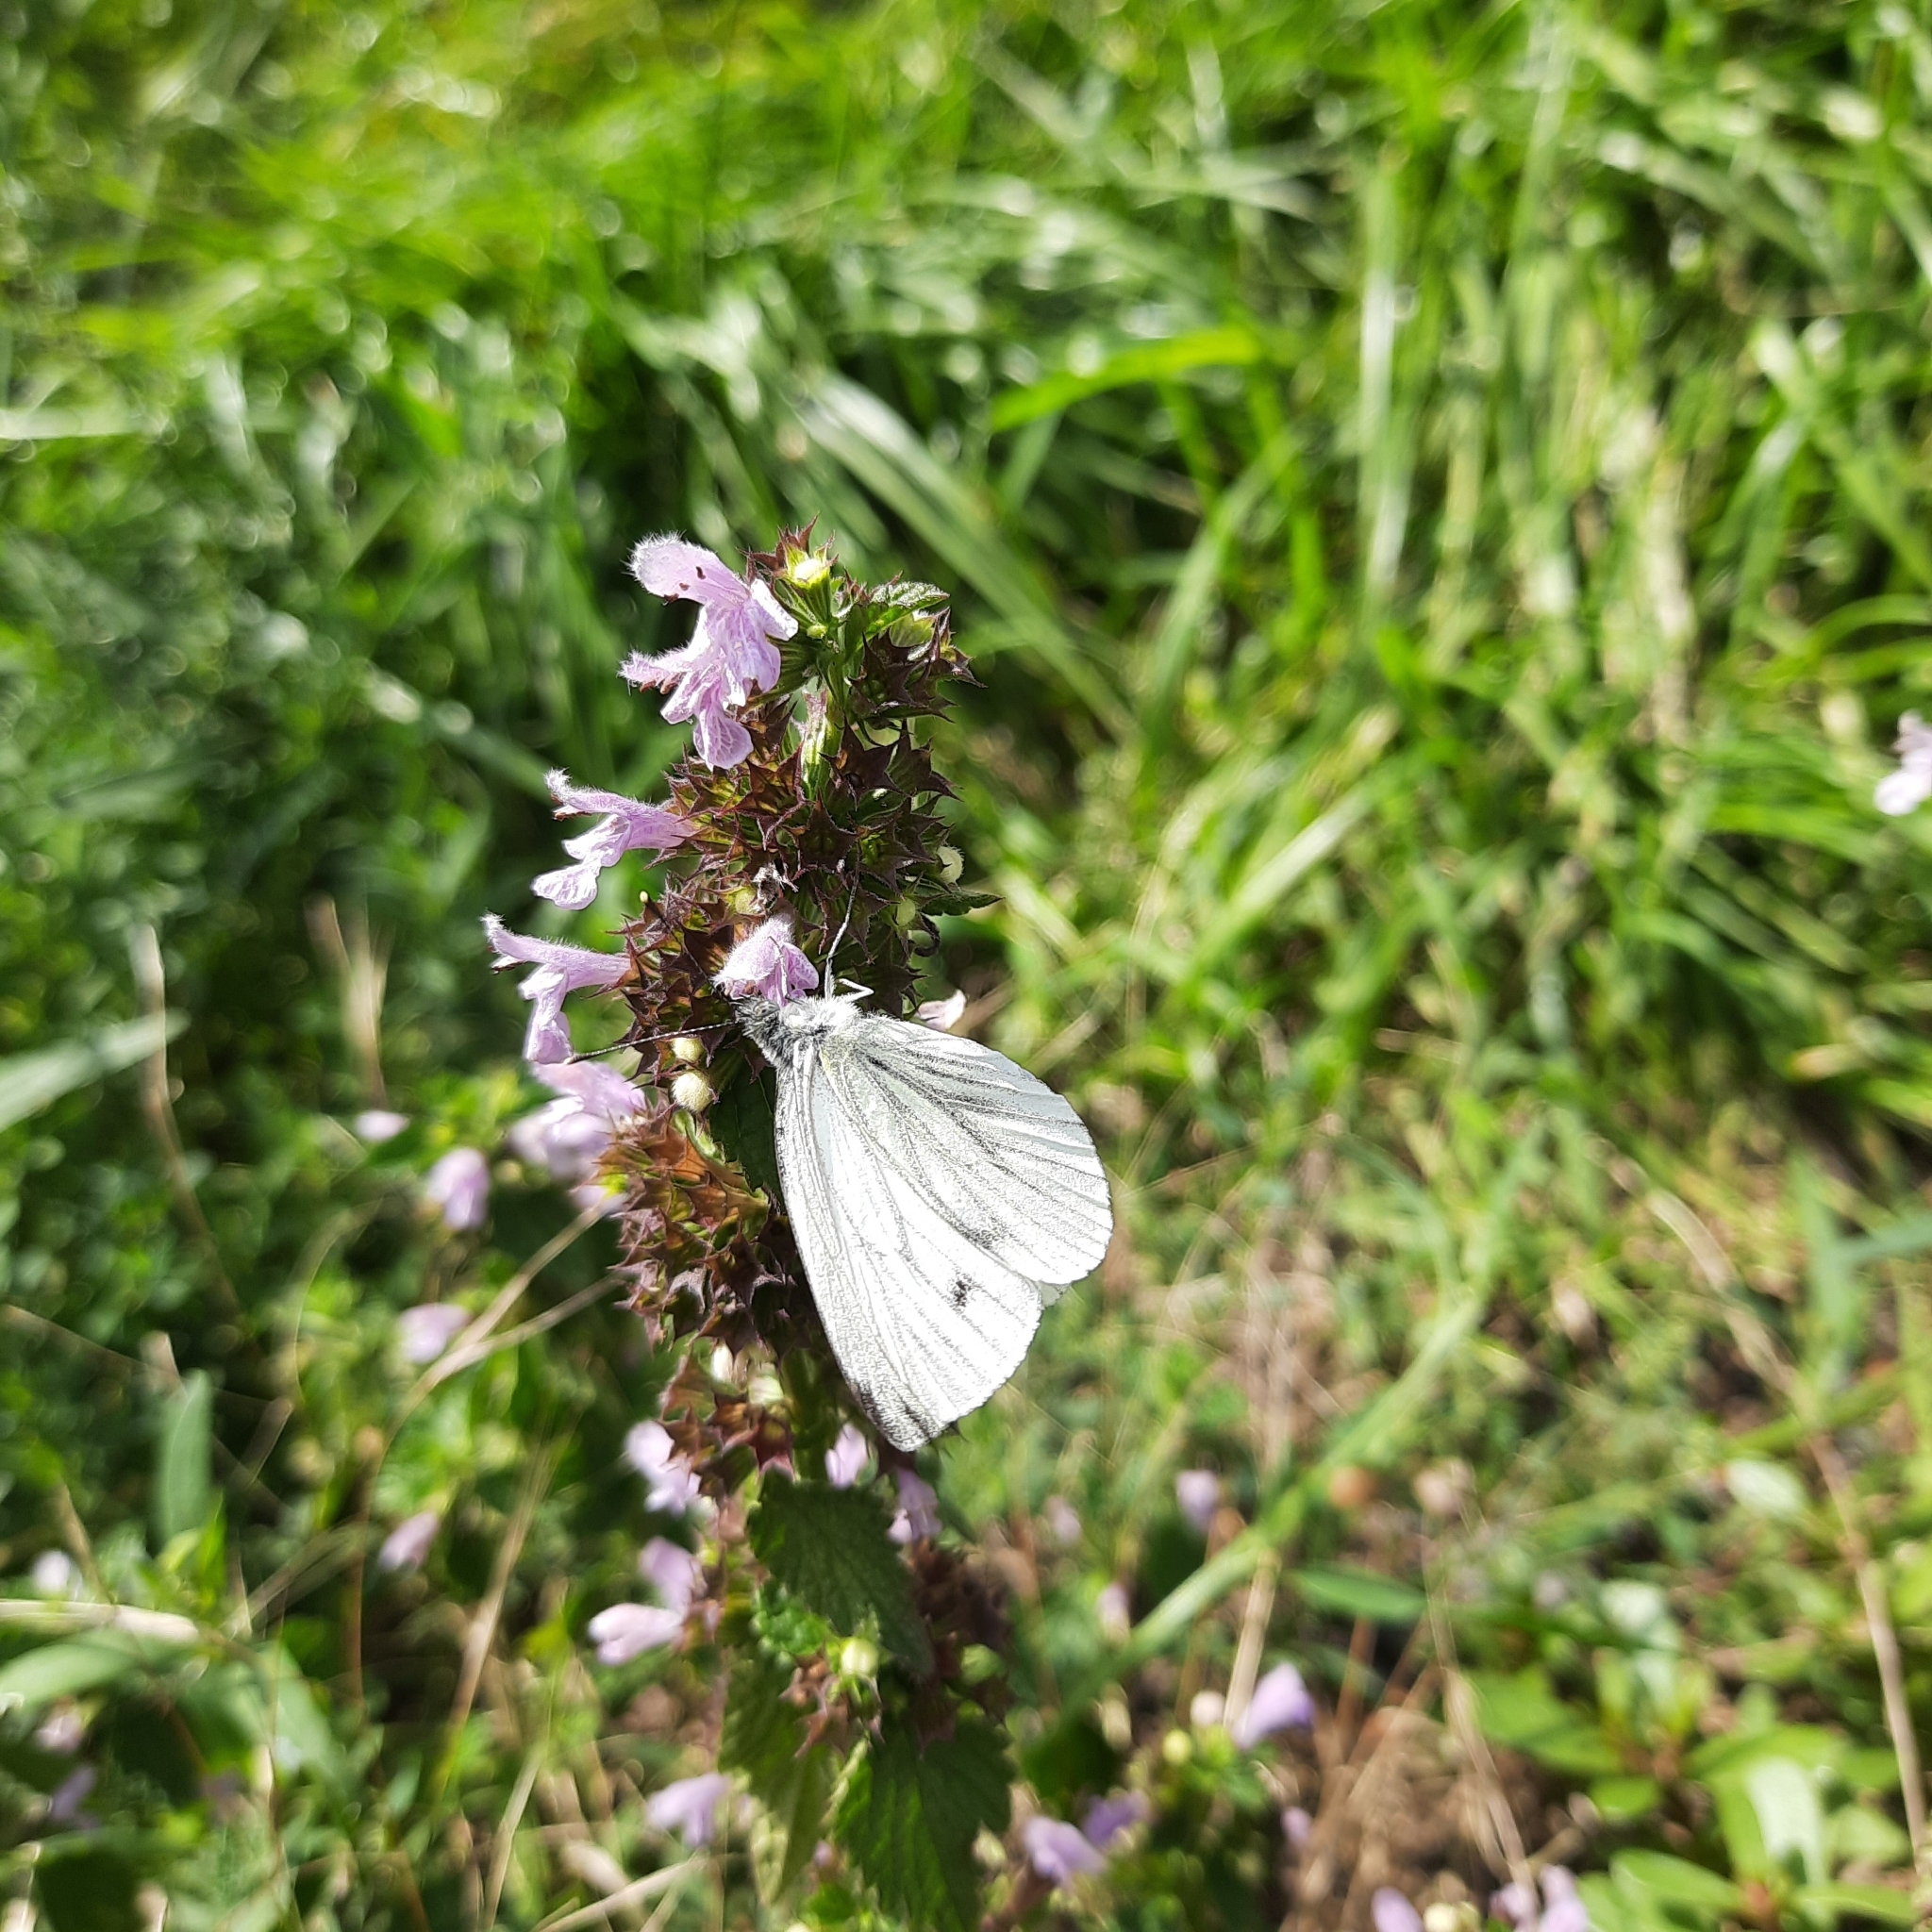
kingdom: Animalia
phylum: Arthropoda
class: Insecta
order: Lepidoptera
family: Pieridae
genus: Pieris
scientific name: Pieris napi
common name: Green-veined white
